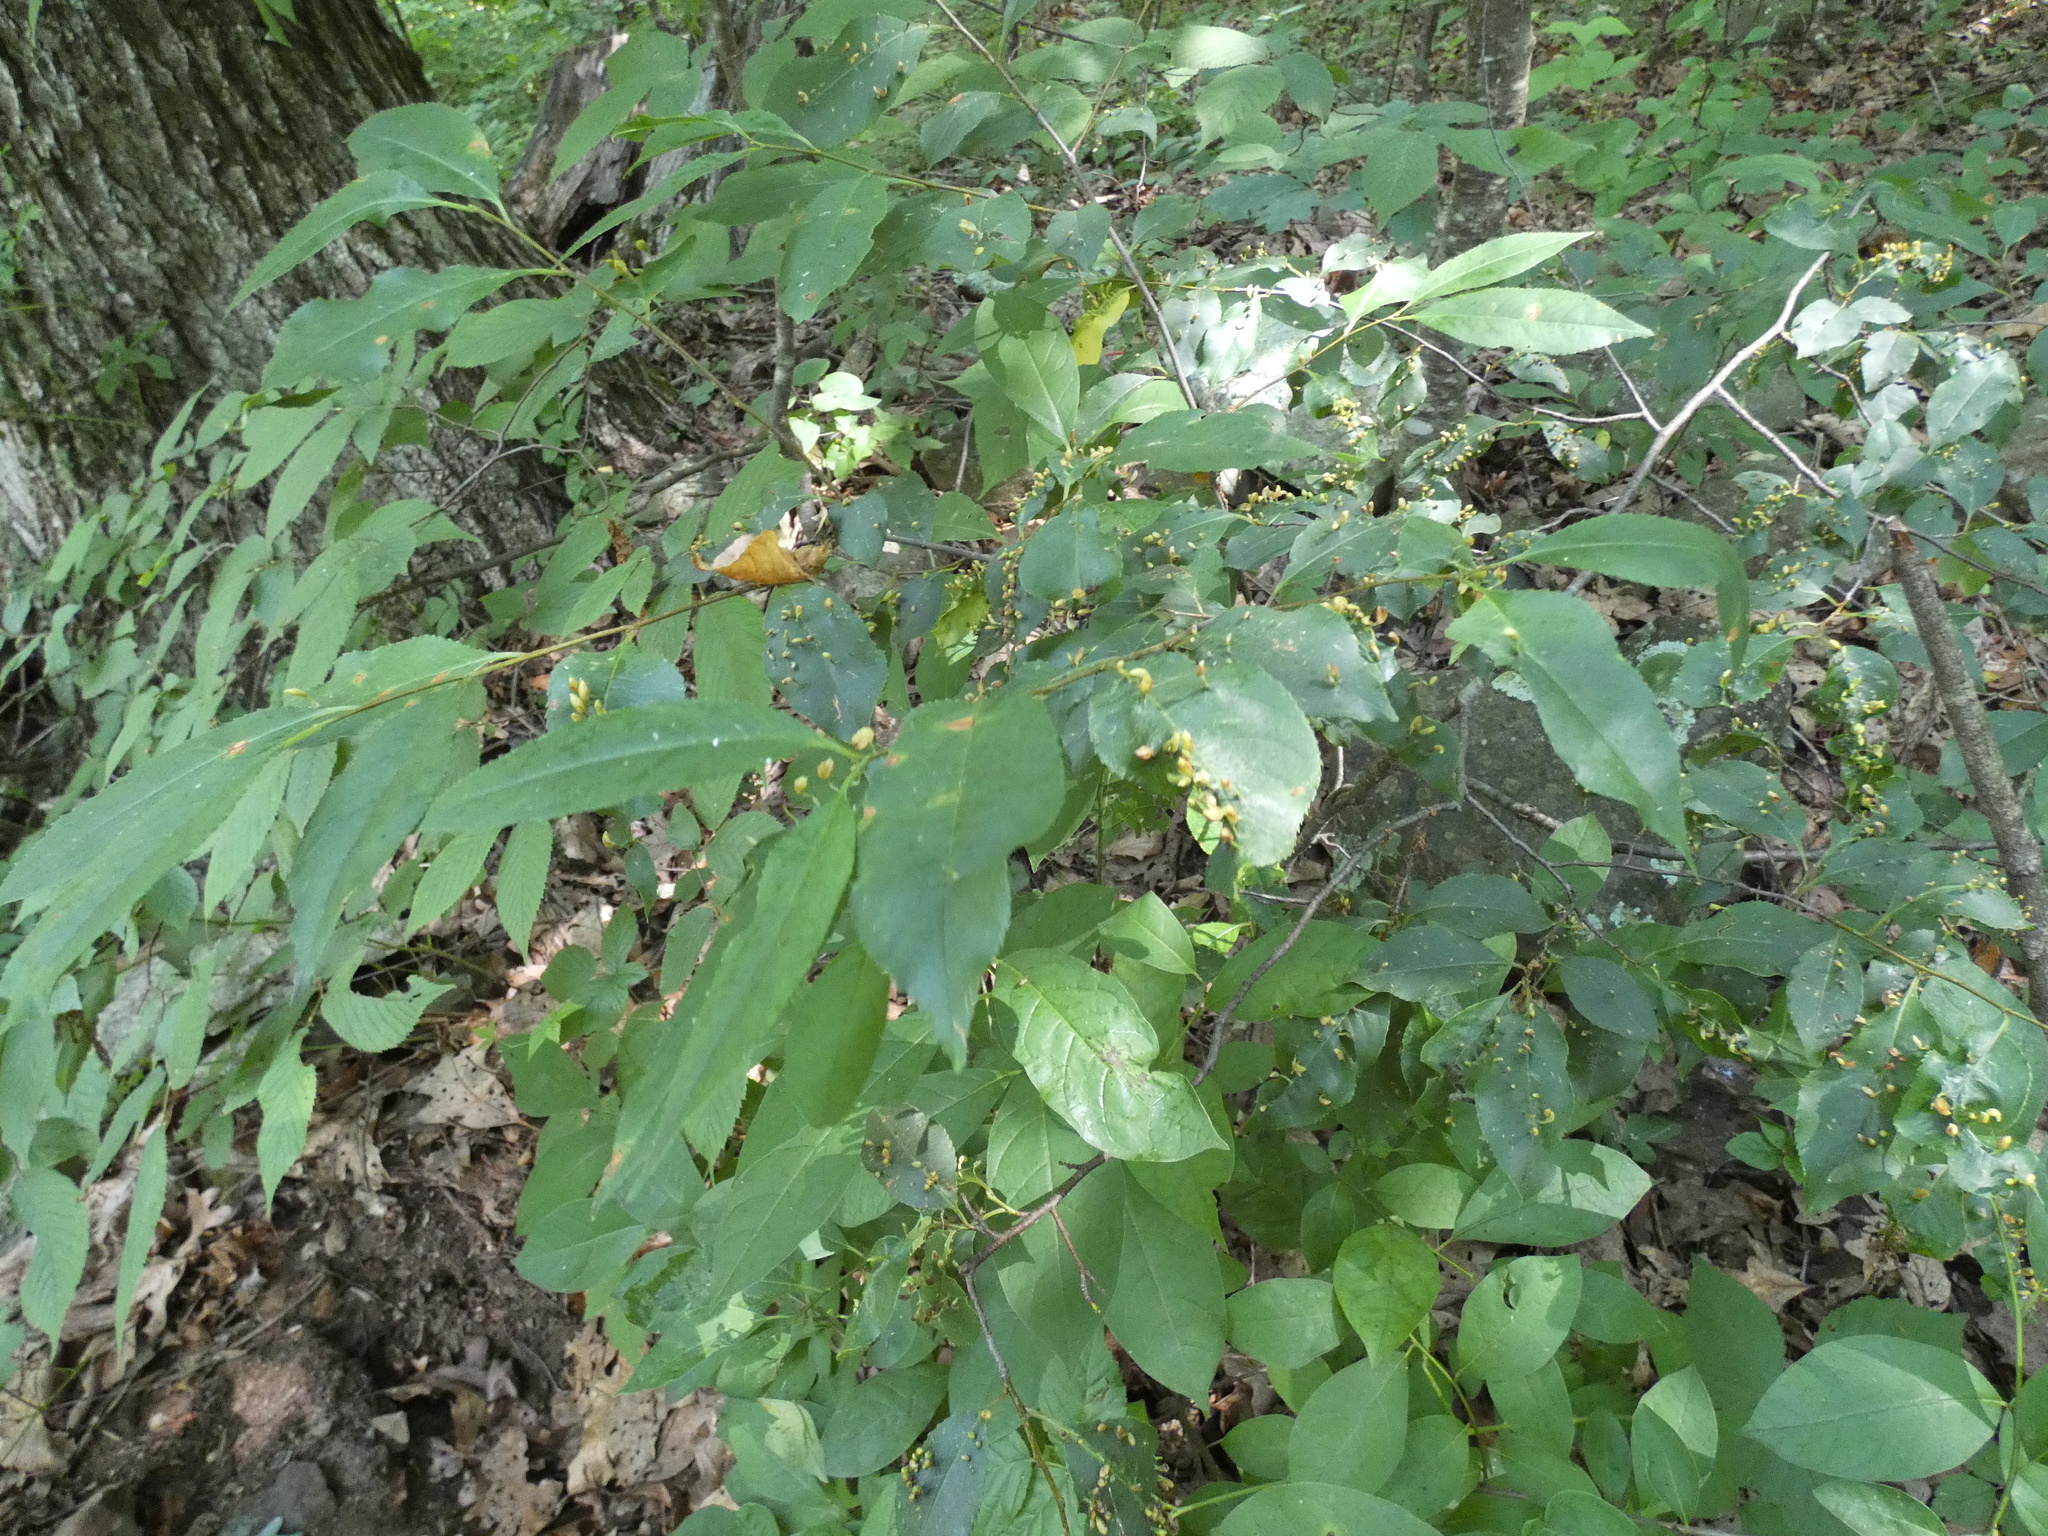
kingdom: Animalia
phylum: Arthropoda
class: Arachnida
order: Trombidiformes
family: Eriophyidae
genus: Eriophyes
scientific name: Eriophyes
